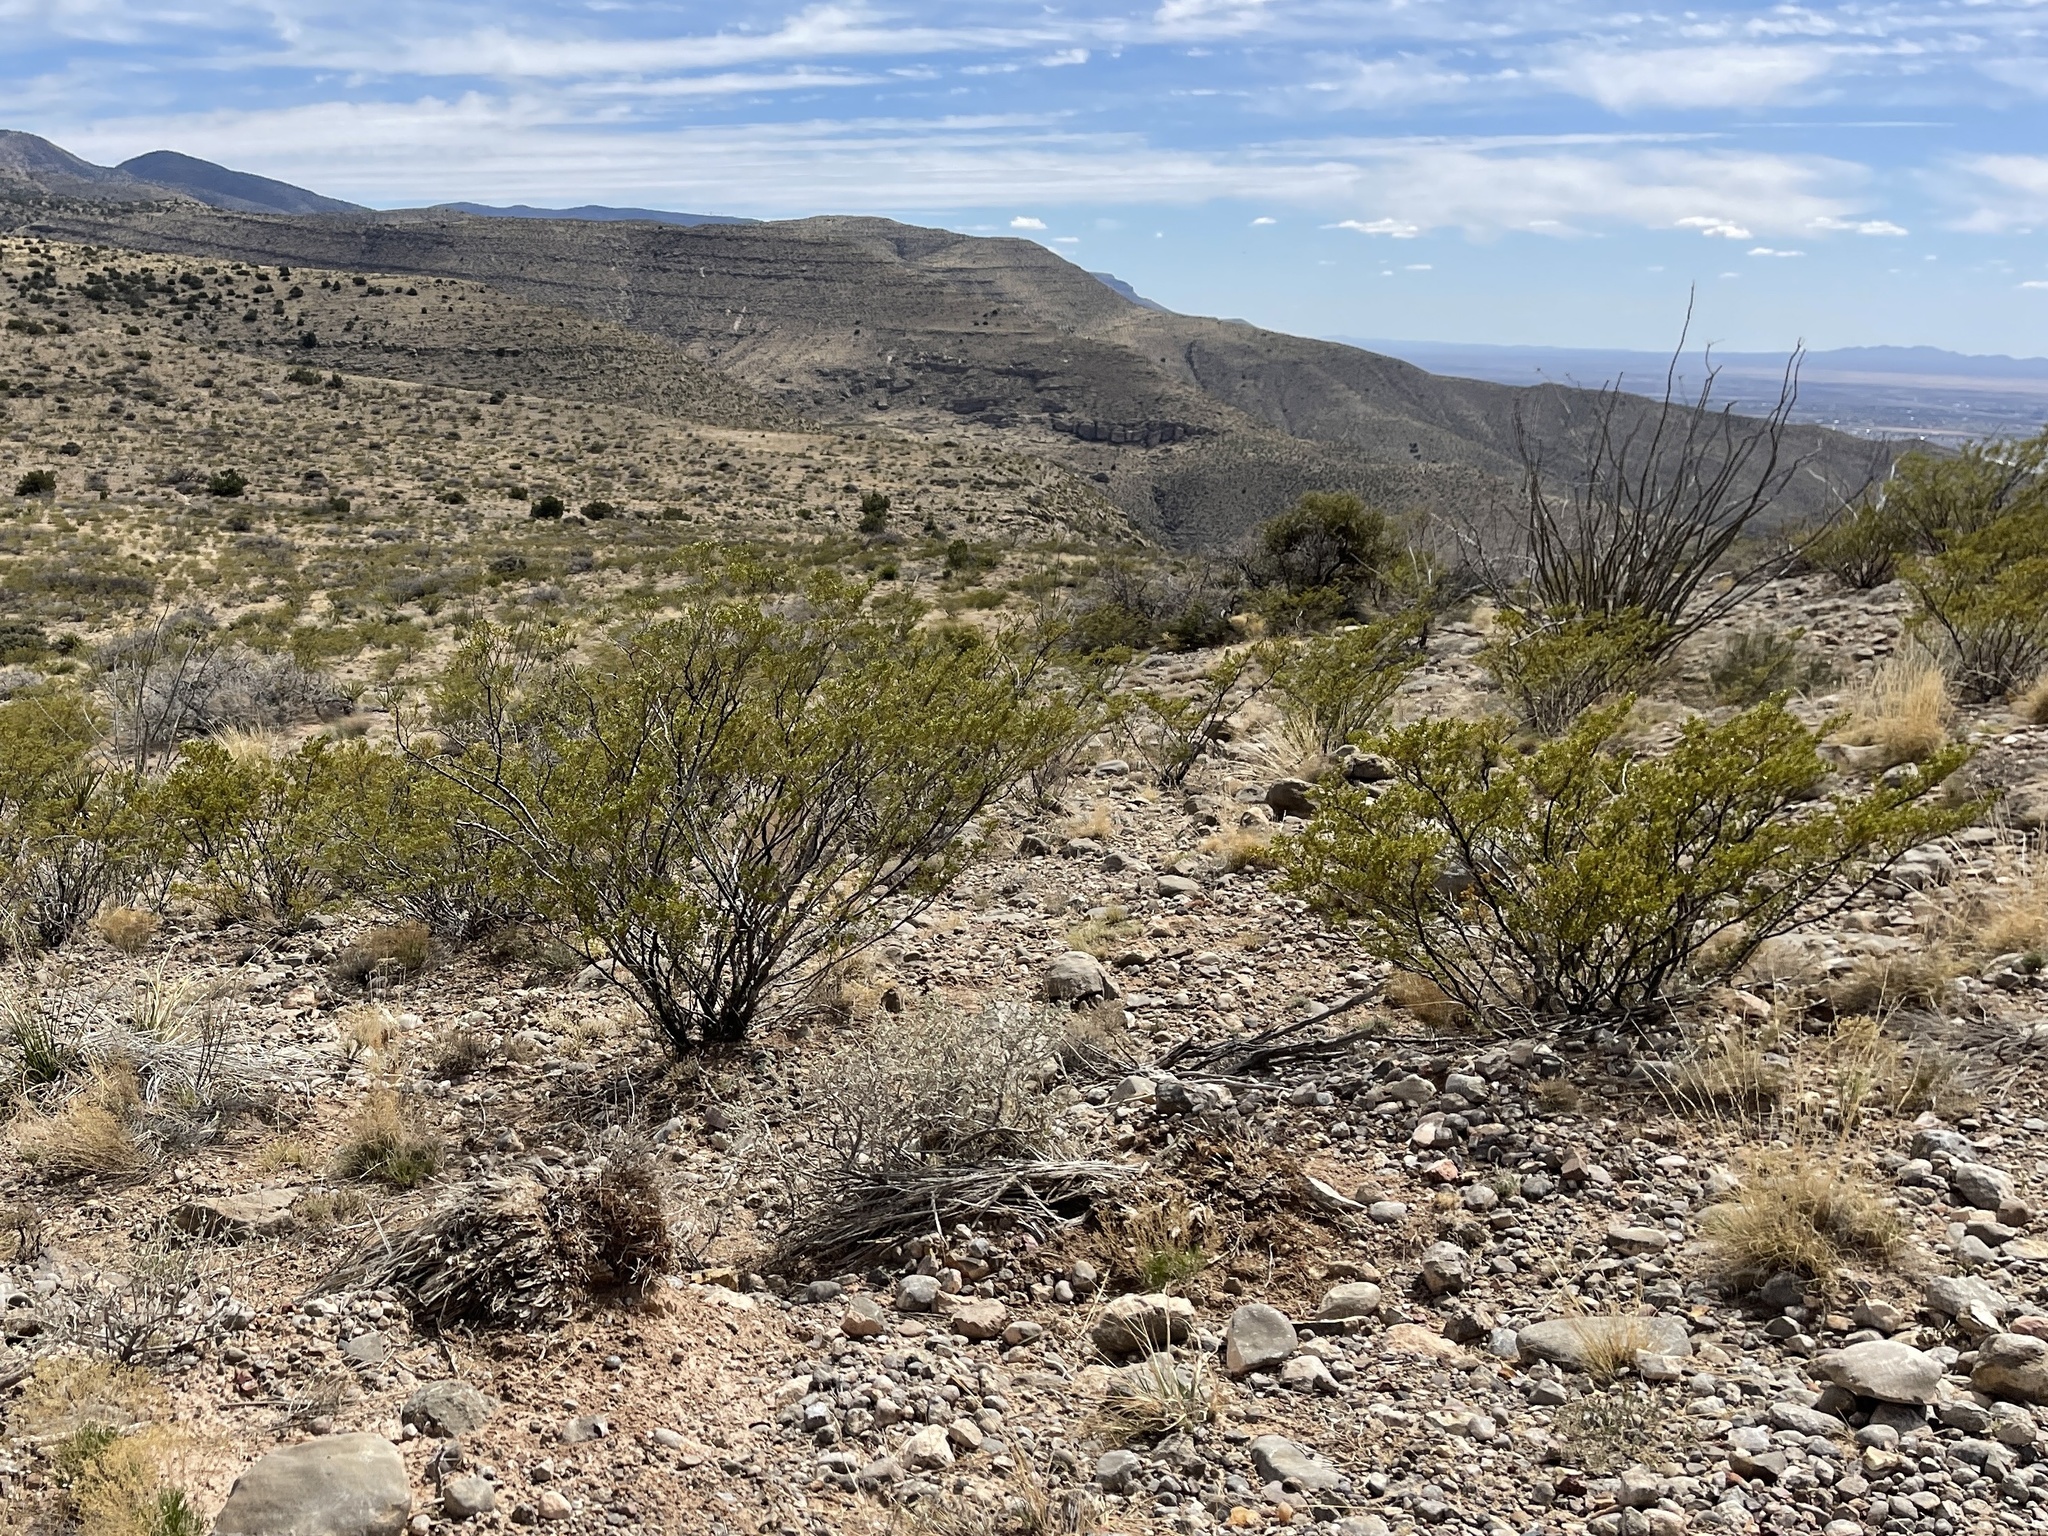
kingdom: Plantae
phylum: Tracheophyta
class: Magnoliopsida
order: Zygophyllales
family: Zygophyllaceae
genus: Larrea
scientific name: Larrea tridentata
